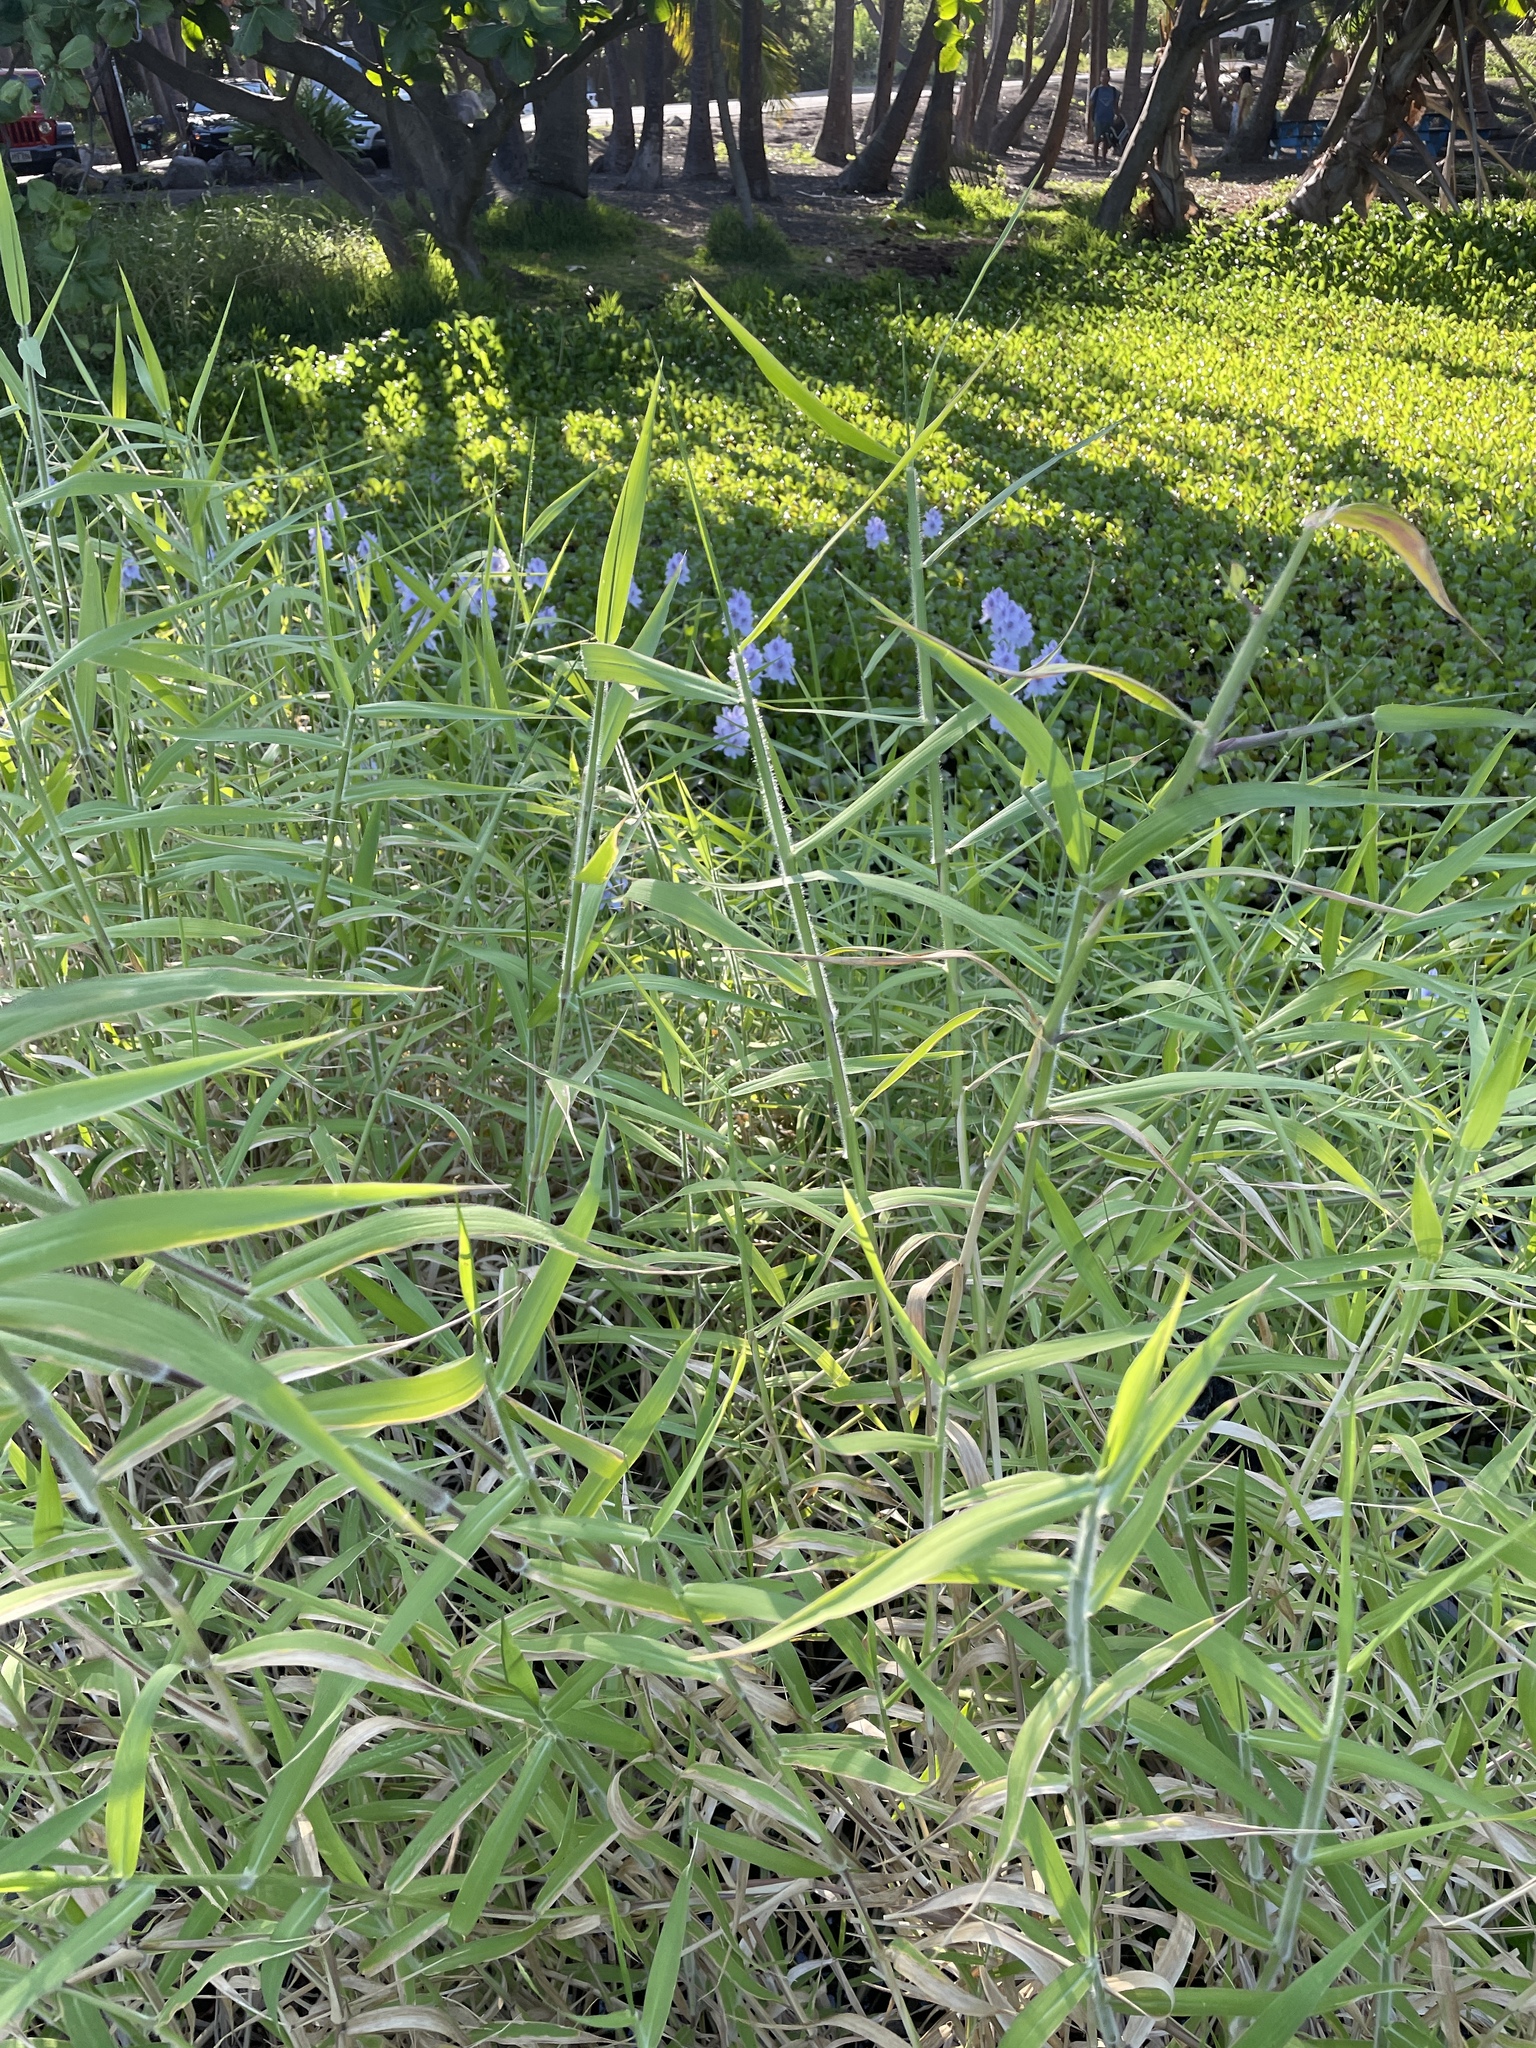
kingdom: Plantae
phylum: Tracheophyta
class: Liliopsida
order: Poales
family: Poaceae
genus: Urochloa
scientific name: Urochloa mutica
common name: Para grass
